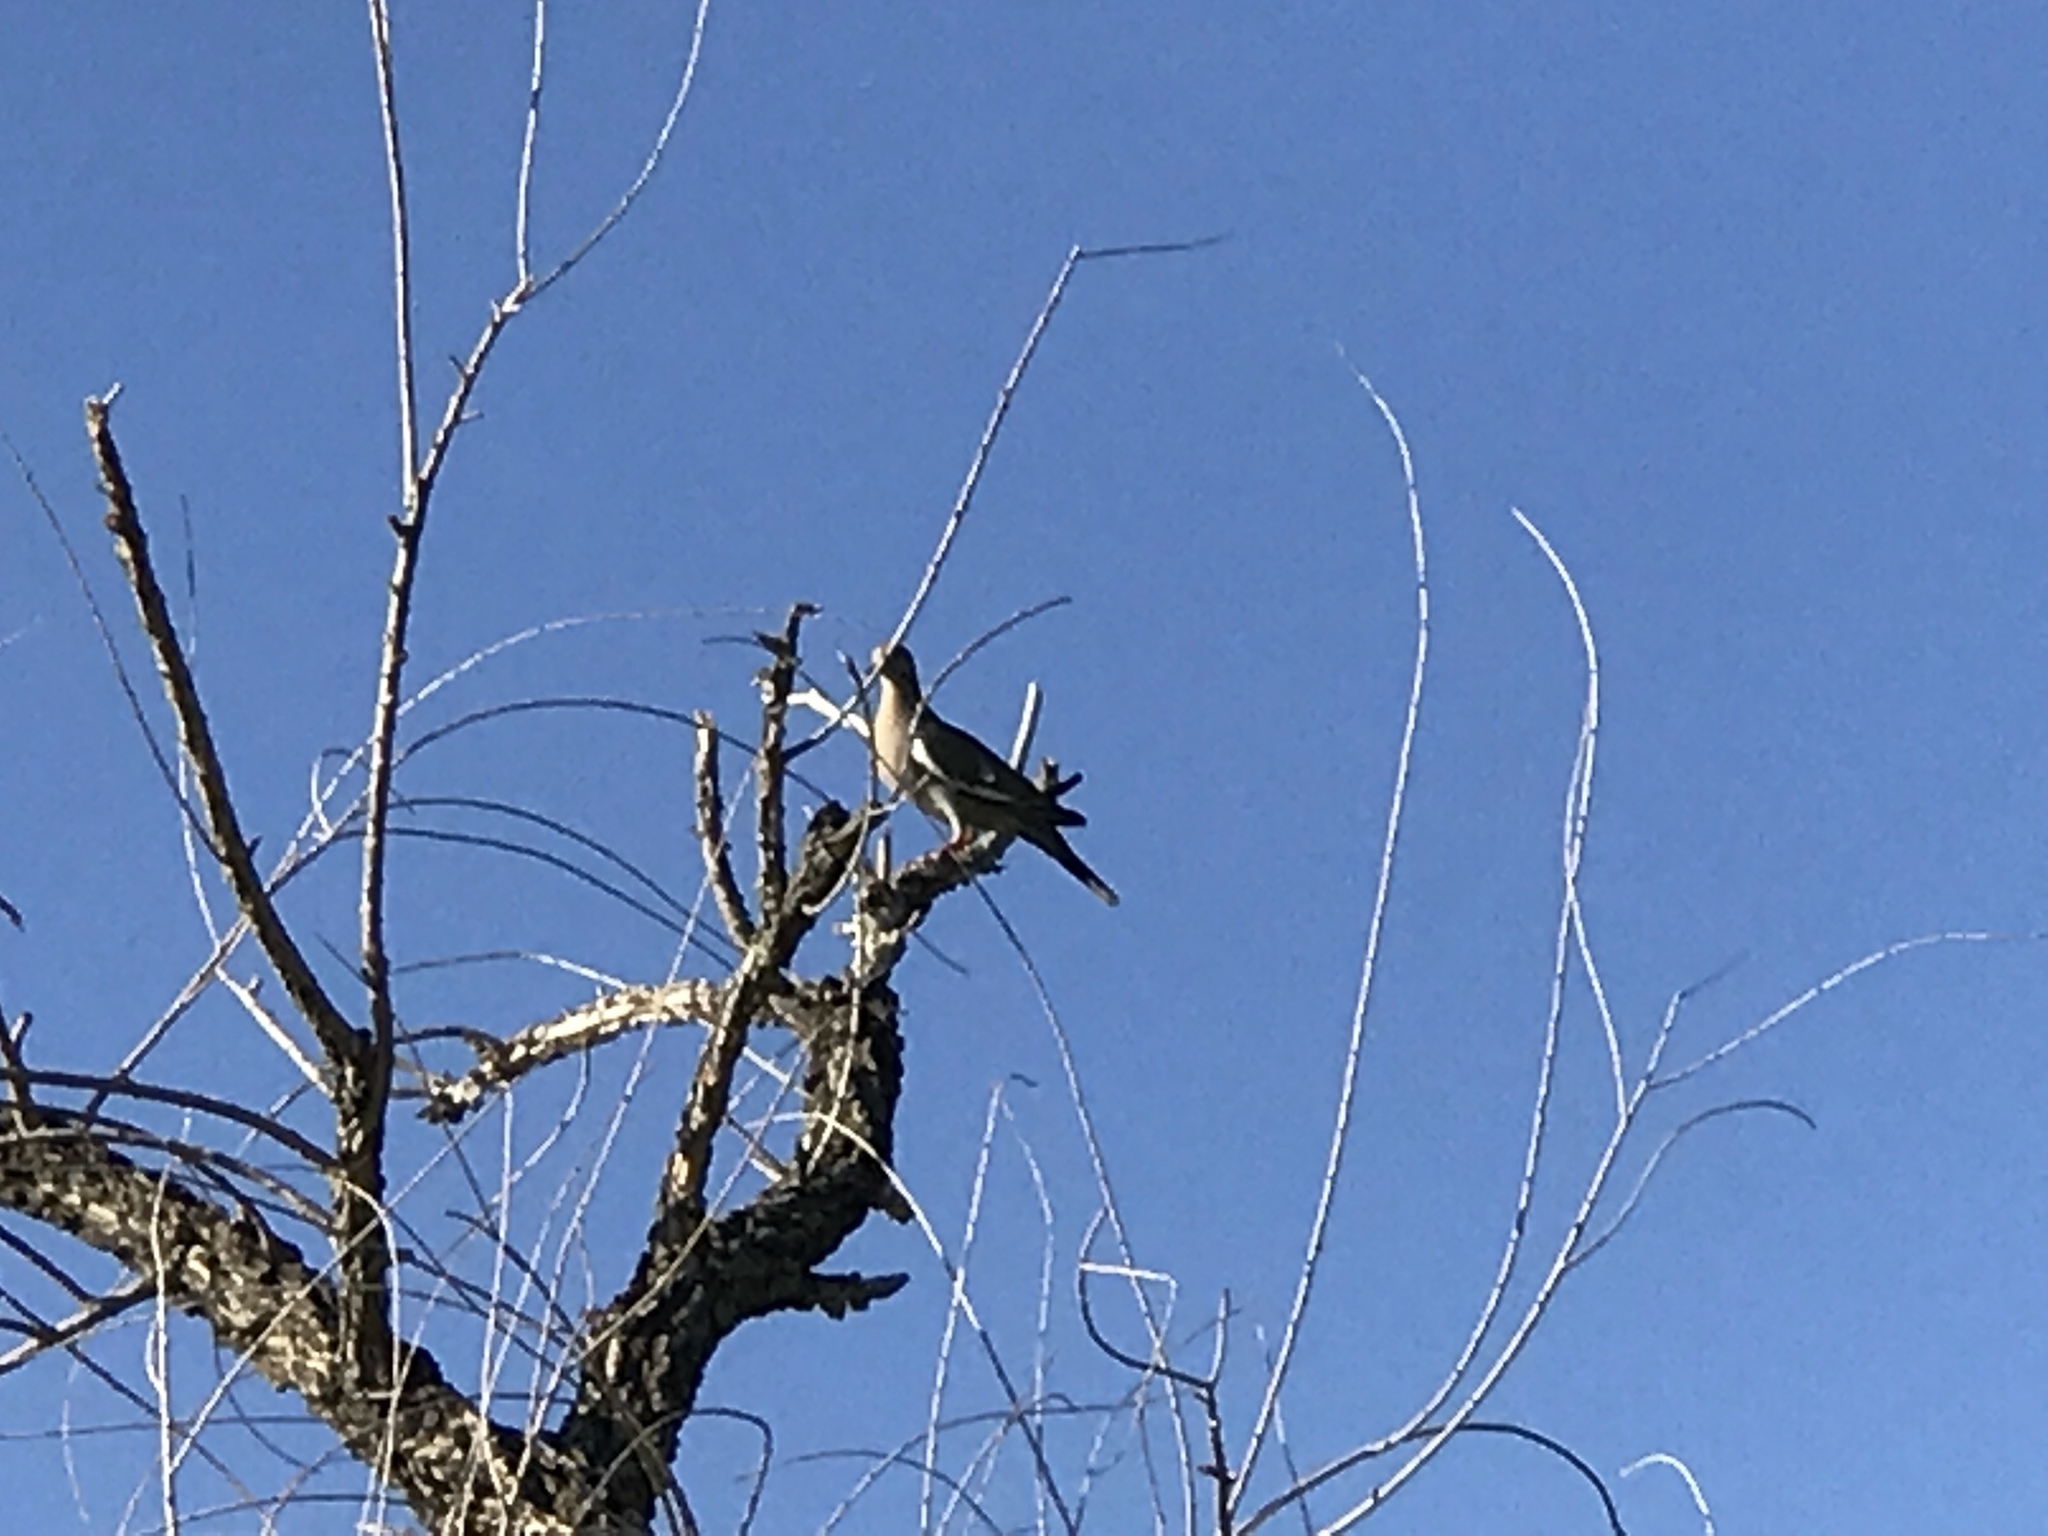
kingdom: Animalia
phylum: Chordata
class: Aves
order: Columbiformes
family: Columbidae
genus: Zenaida
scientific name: Zenaida asiatica
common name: White-winged dove
